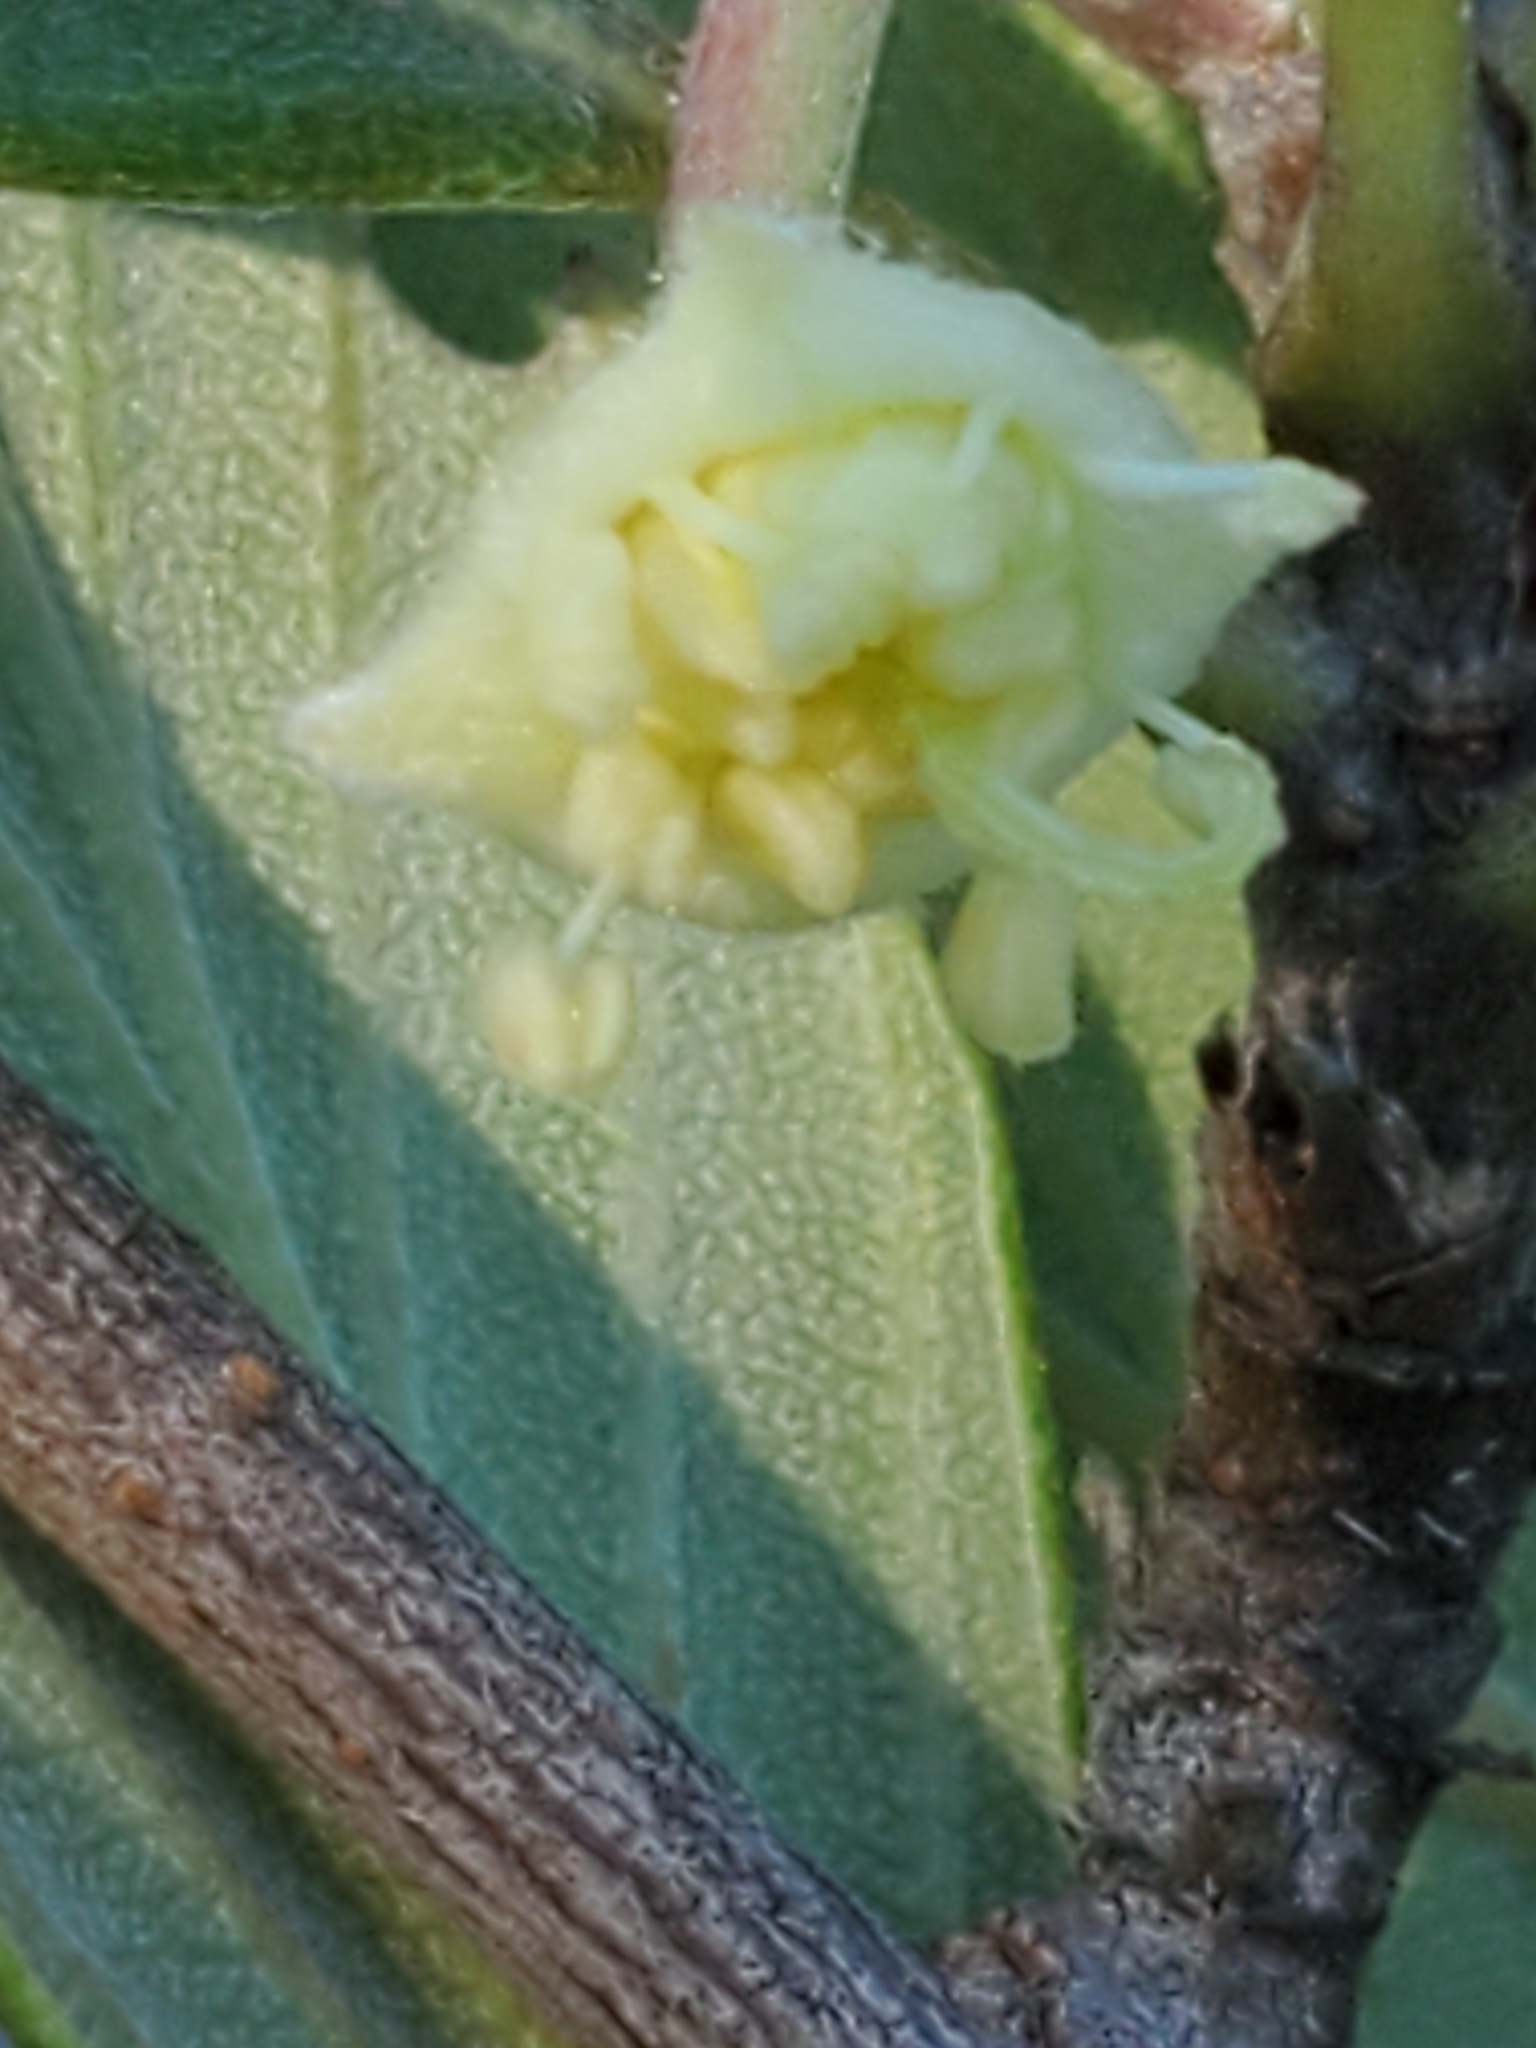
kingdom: Plantae
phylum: Tracheophyta
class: Magnoliopsida
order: Rosales
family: Rosaceae
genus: Cercocarpus
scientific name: Cercocarpus montanus
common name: Alder-leaf cercocarpus
